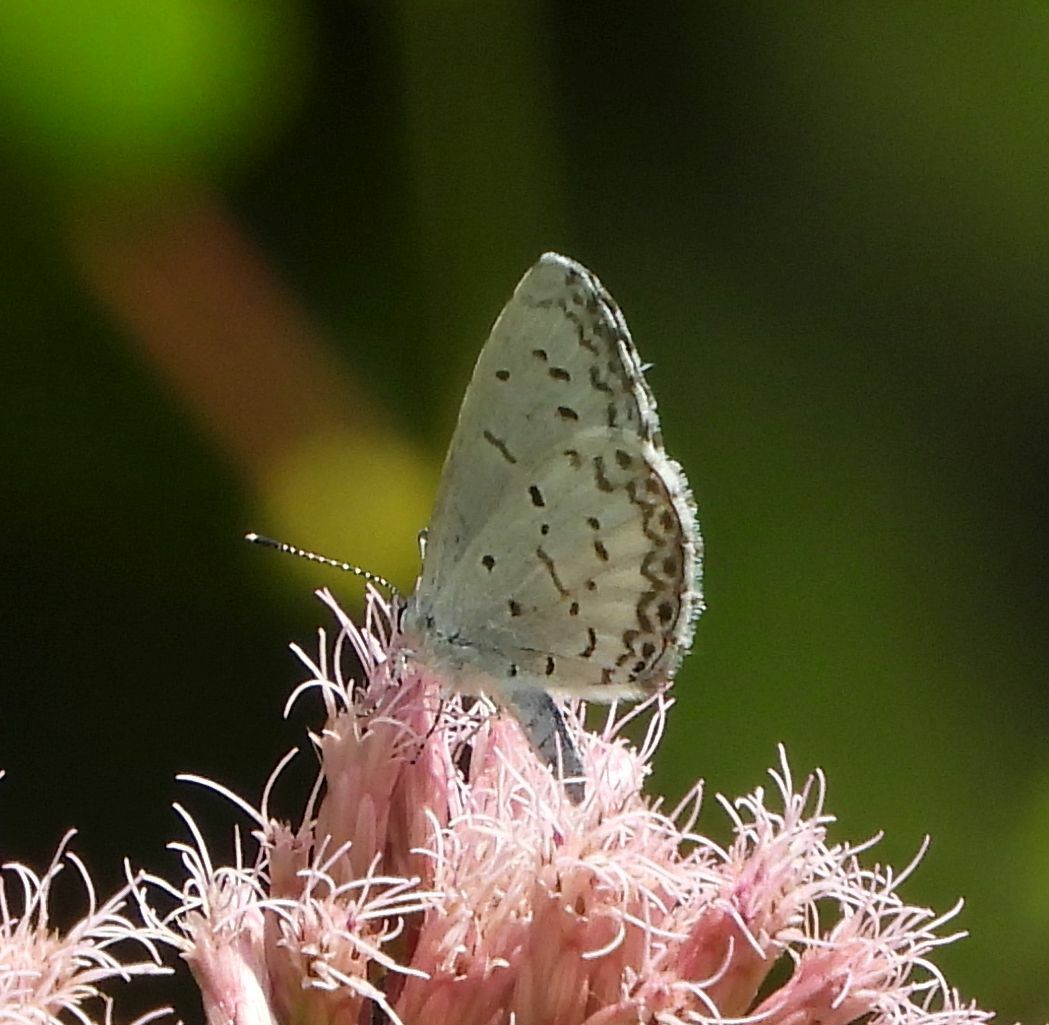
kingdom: Animalia
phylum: Arthropoda
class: Insecta
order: Lepidoptera
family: Lycaenidae
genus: Celastrina
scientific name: Celastrina lucia
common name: Lucia azure
